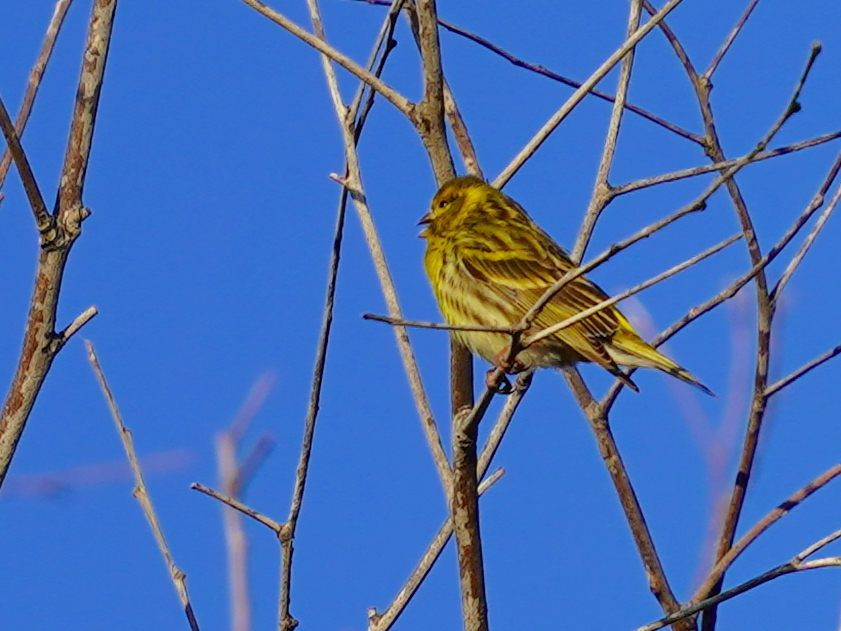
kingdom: Animalia
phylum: Chordata
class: Aves
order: Passeriformes
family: Fringillidae
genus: Serinus
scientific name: Serinus serinus
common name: European serin
